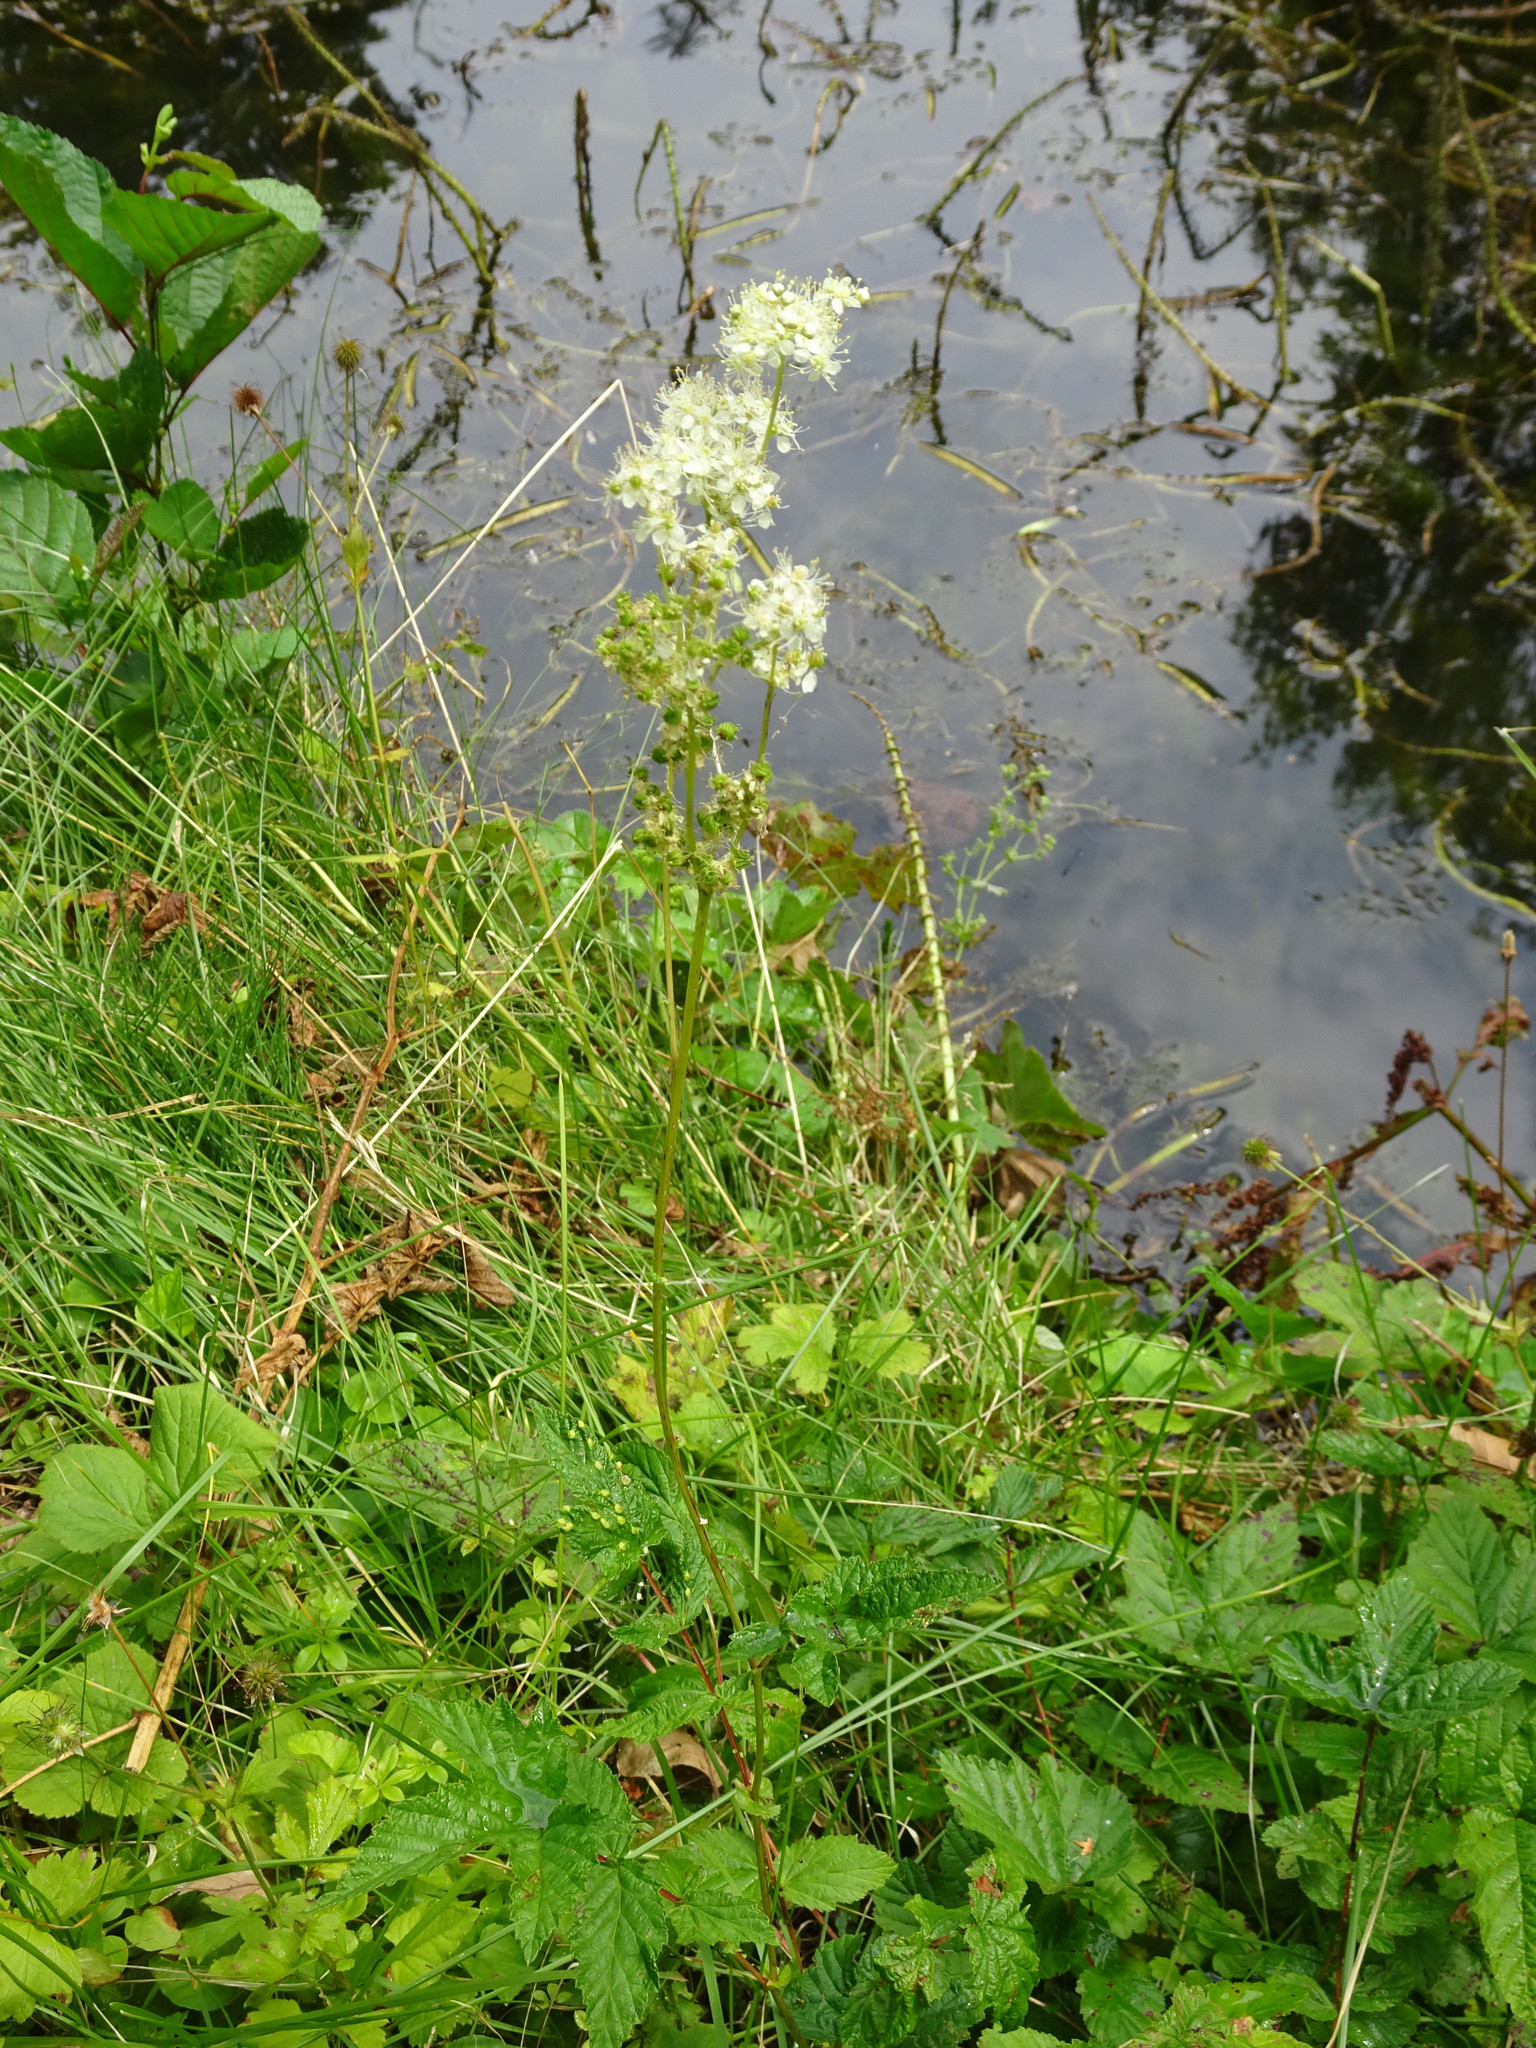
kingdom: Plantae
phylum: Tracheophyta
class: Magnoliopsida
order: Rosales
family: Rosaceae
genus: Filipendula
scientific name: Filipendula ulmaria
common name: Meadowsweet
